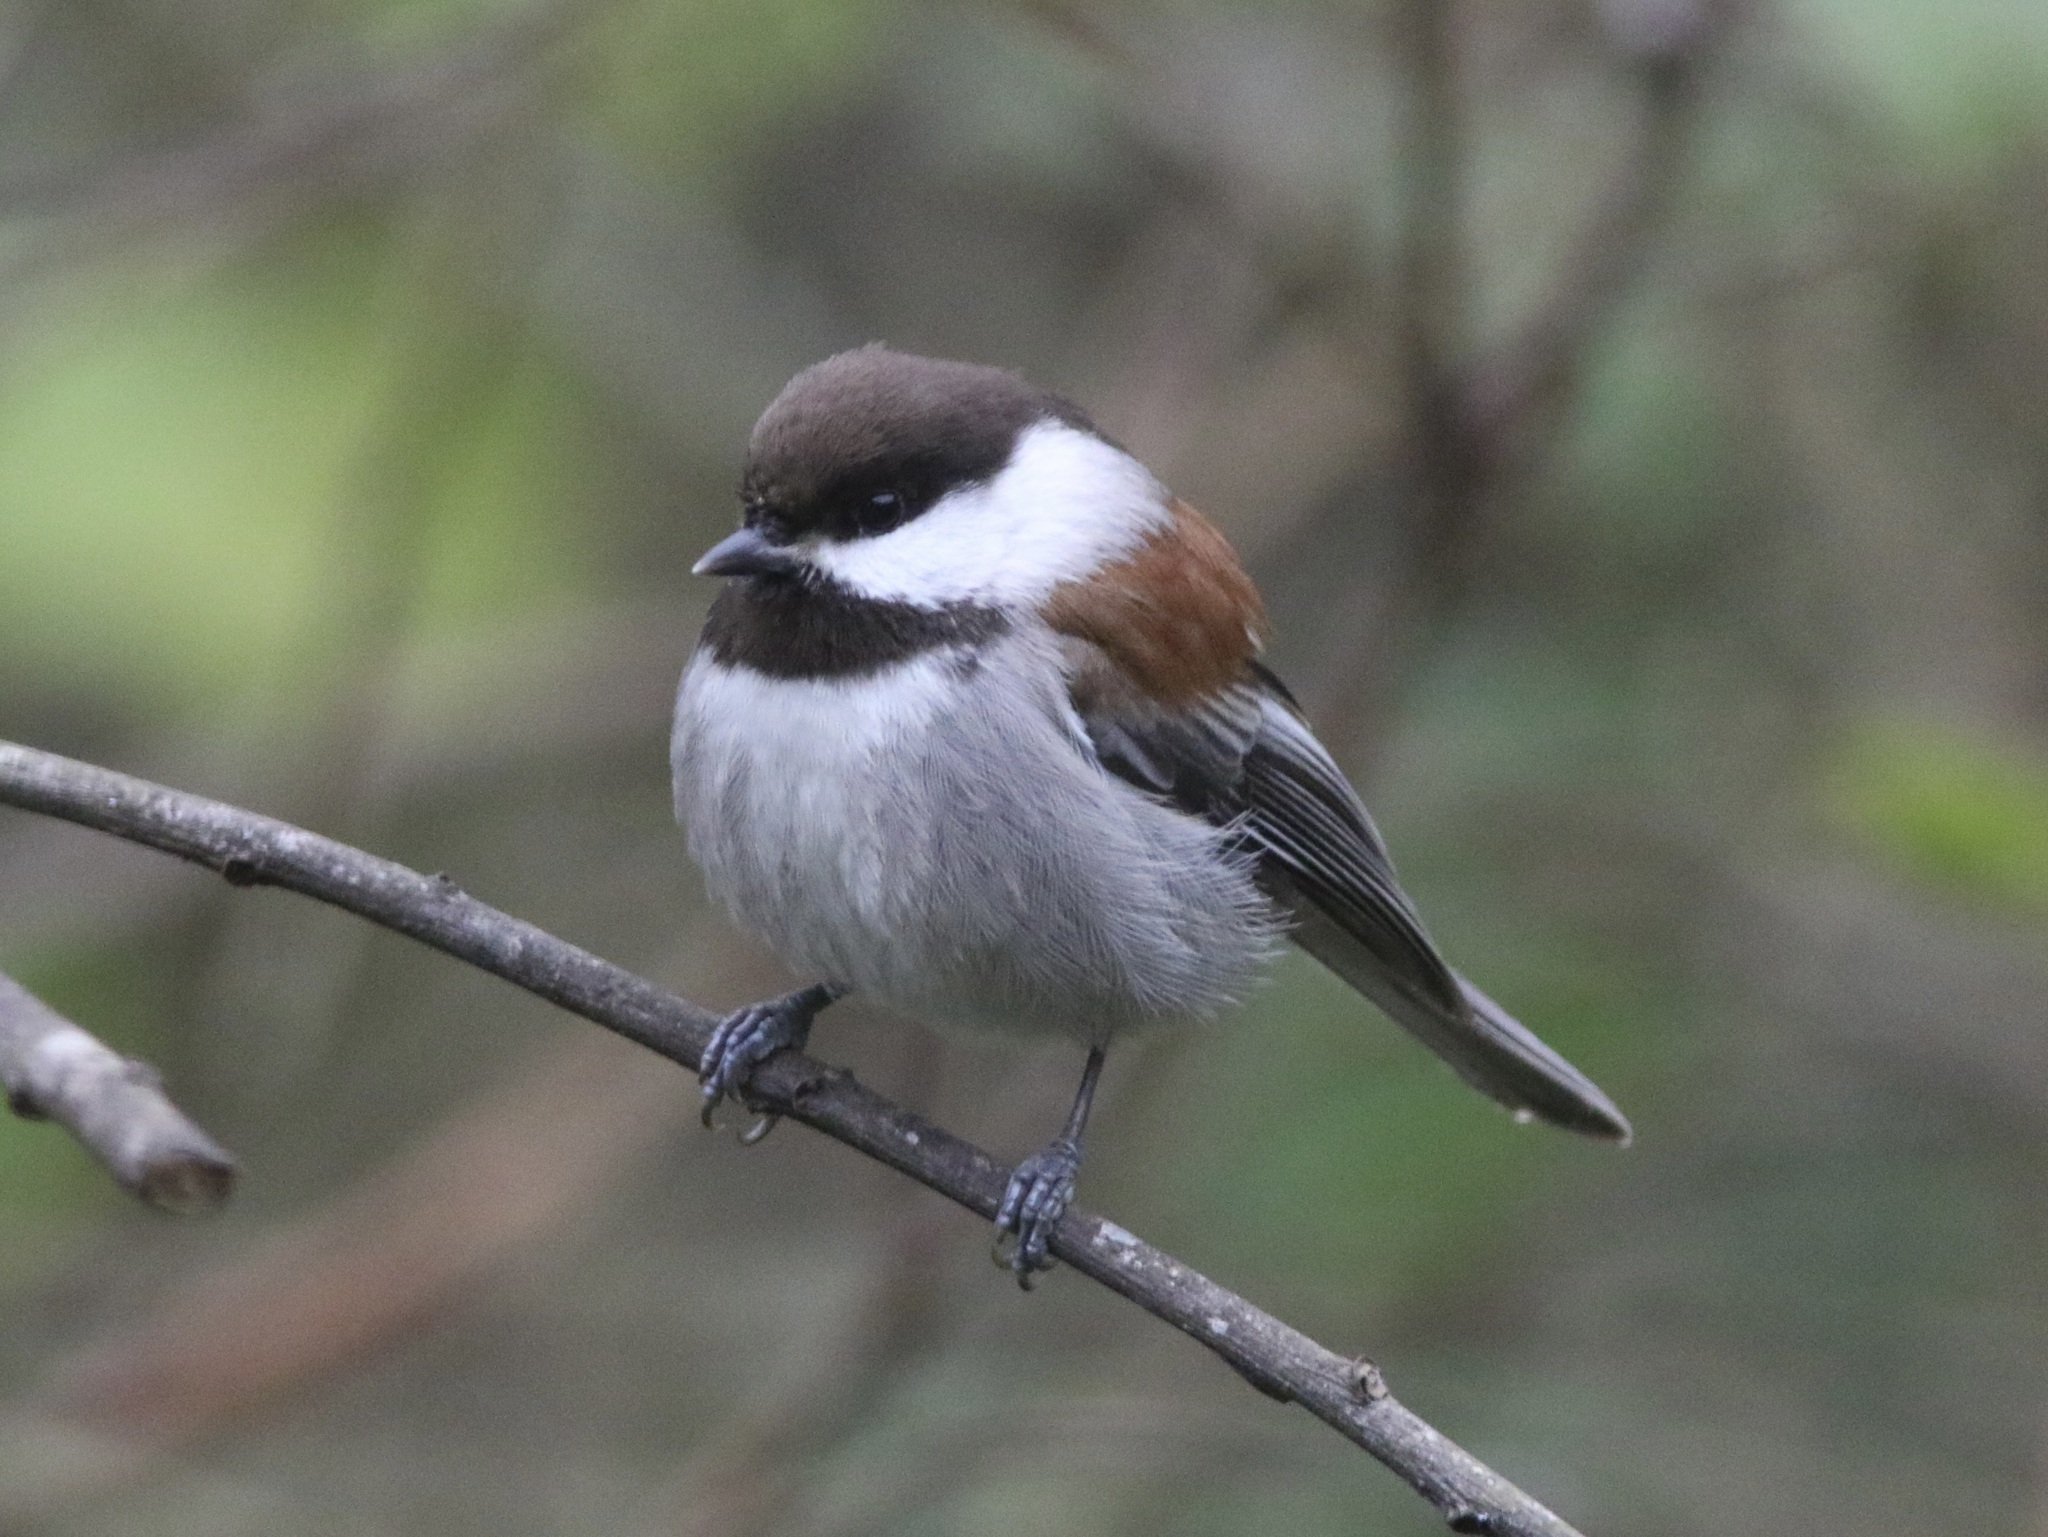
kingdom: Animalia
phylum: Chordata
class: Aves
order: Passeriformes
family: Paridae
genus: Poecile
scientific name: Poecile rufescens
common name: Chestnut-backed chickadee
